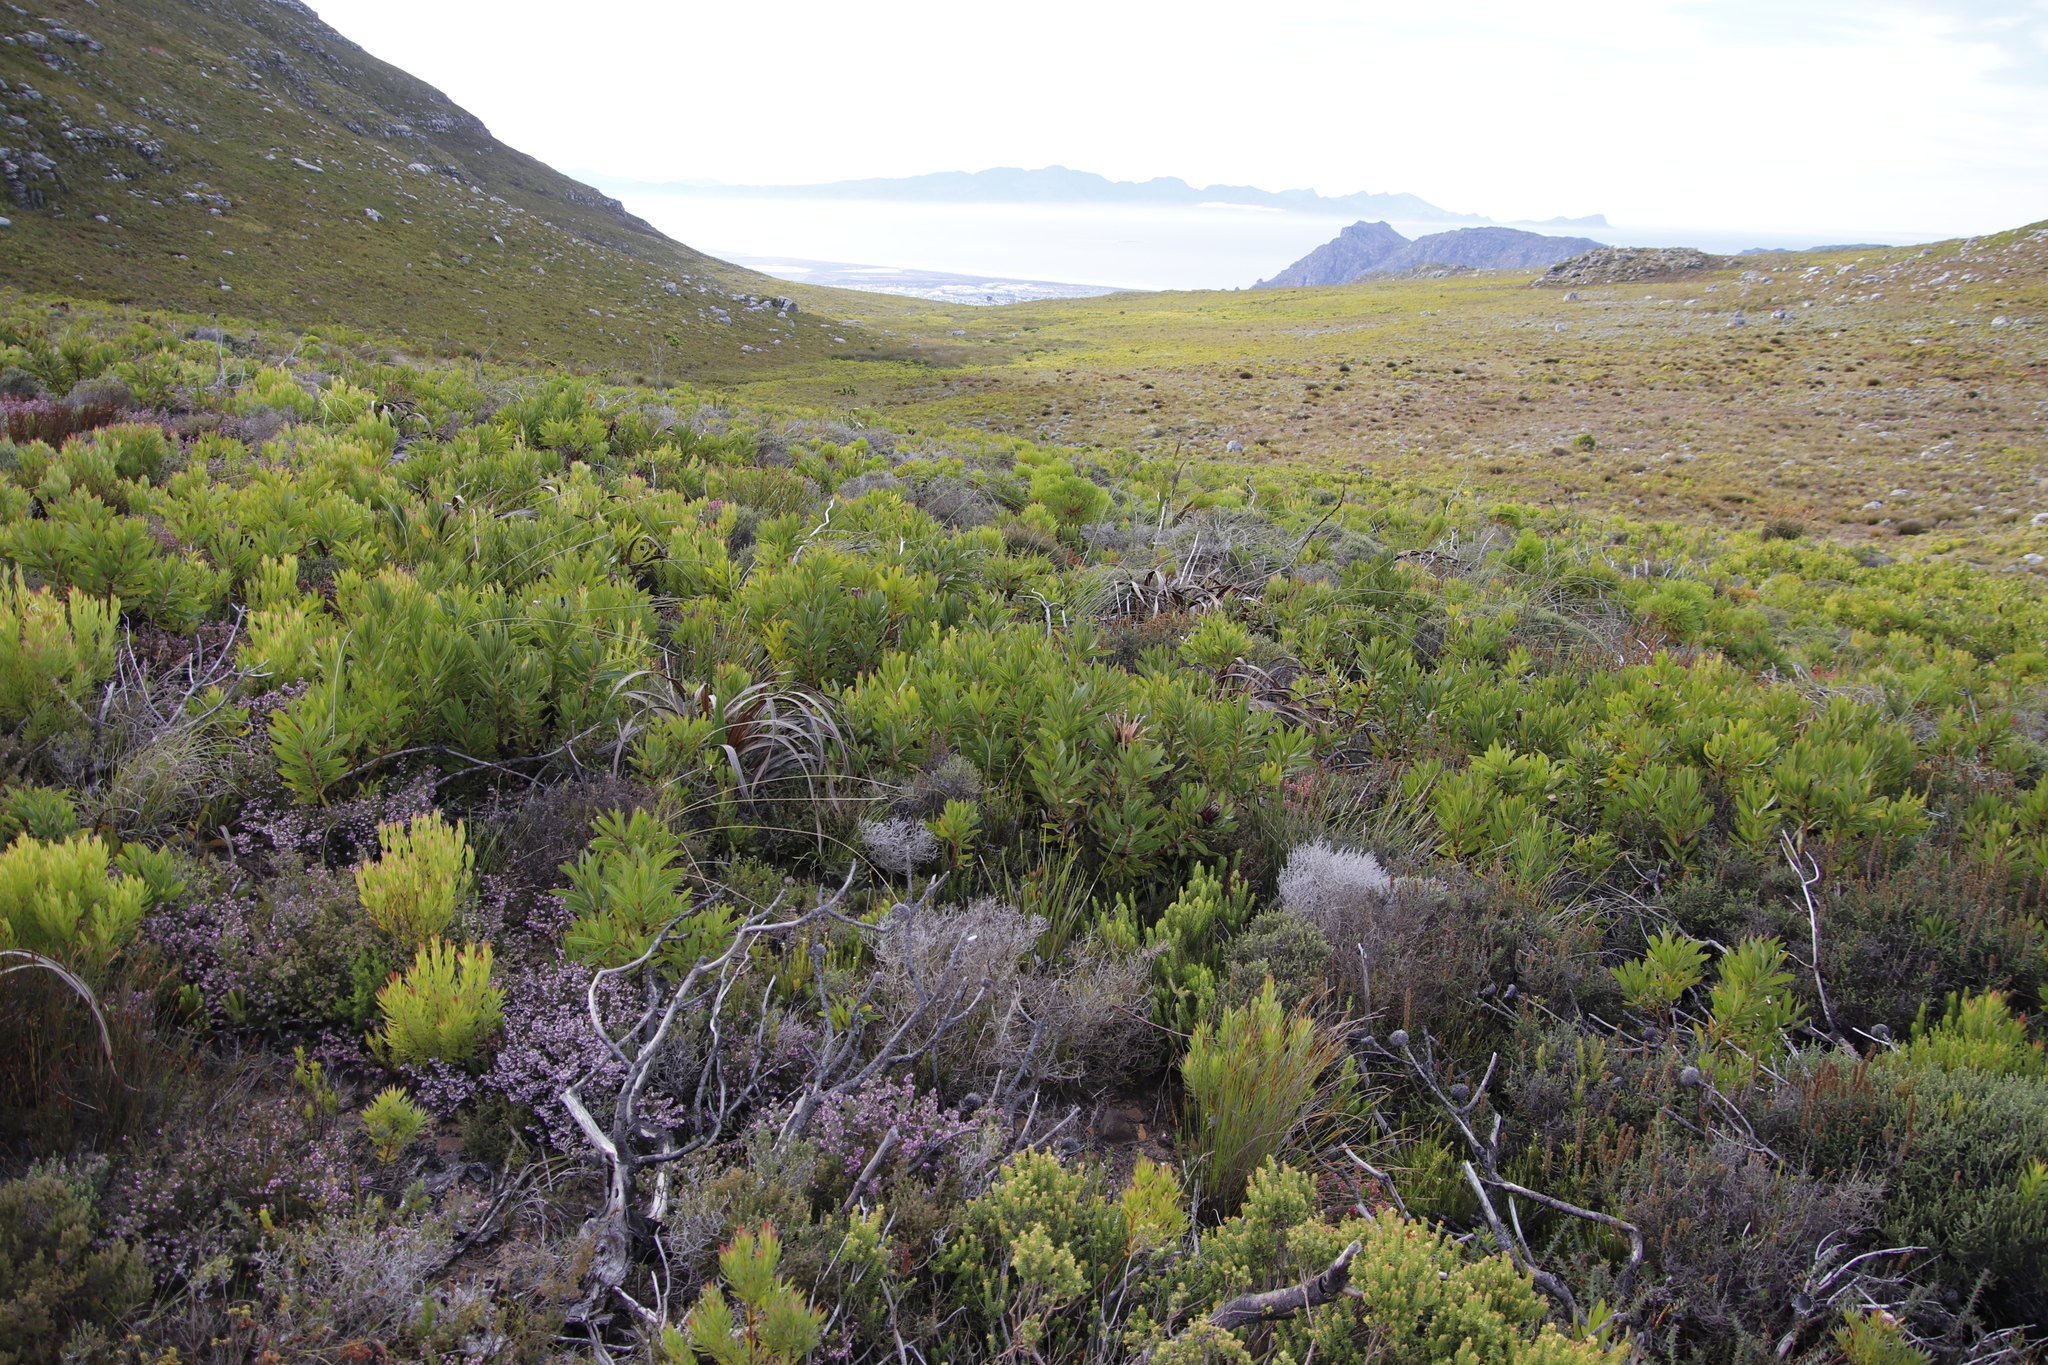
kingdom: Plantae
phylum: Tracheophyta
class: Magnoliopsida
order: Proteales
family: Proteaceae
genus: Protea
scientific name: Protea lepidocarpodendron
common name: Black-bearded protea
